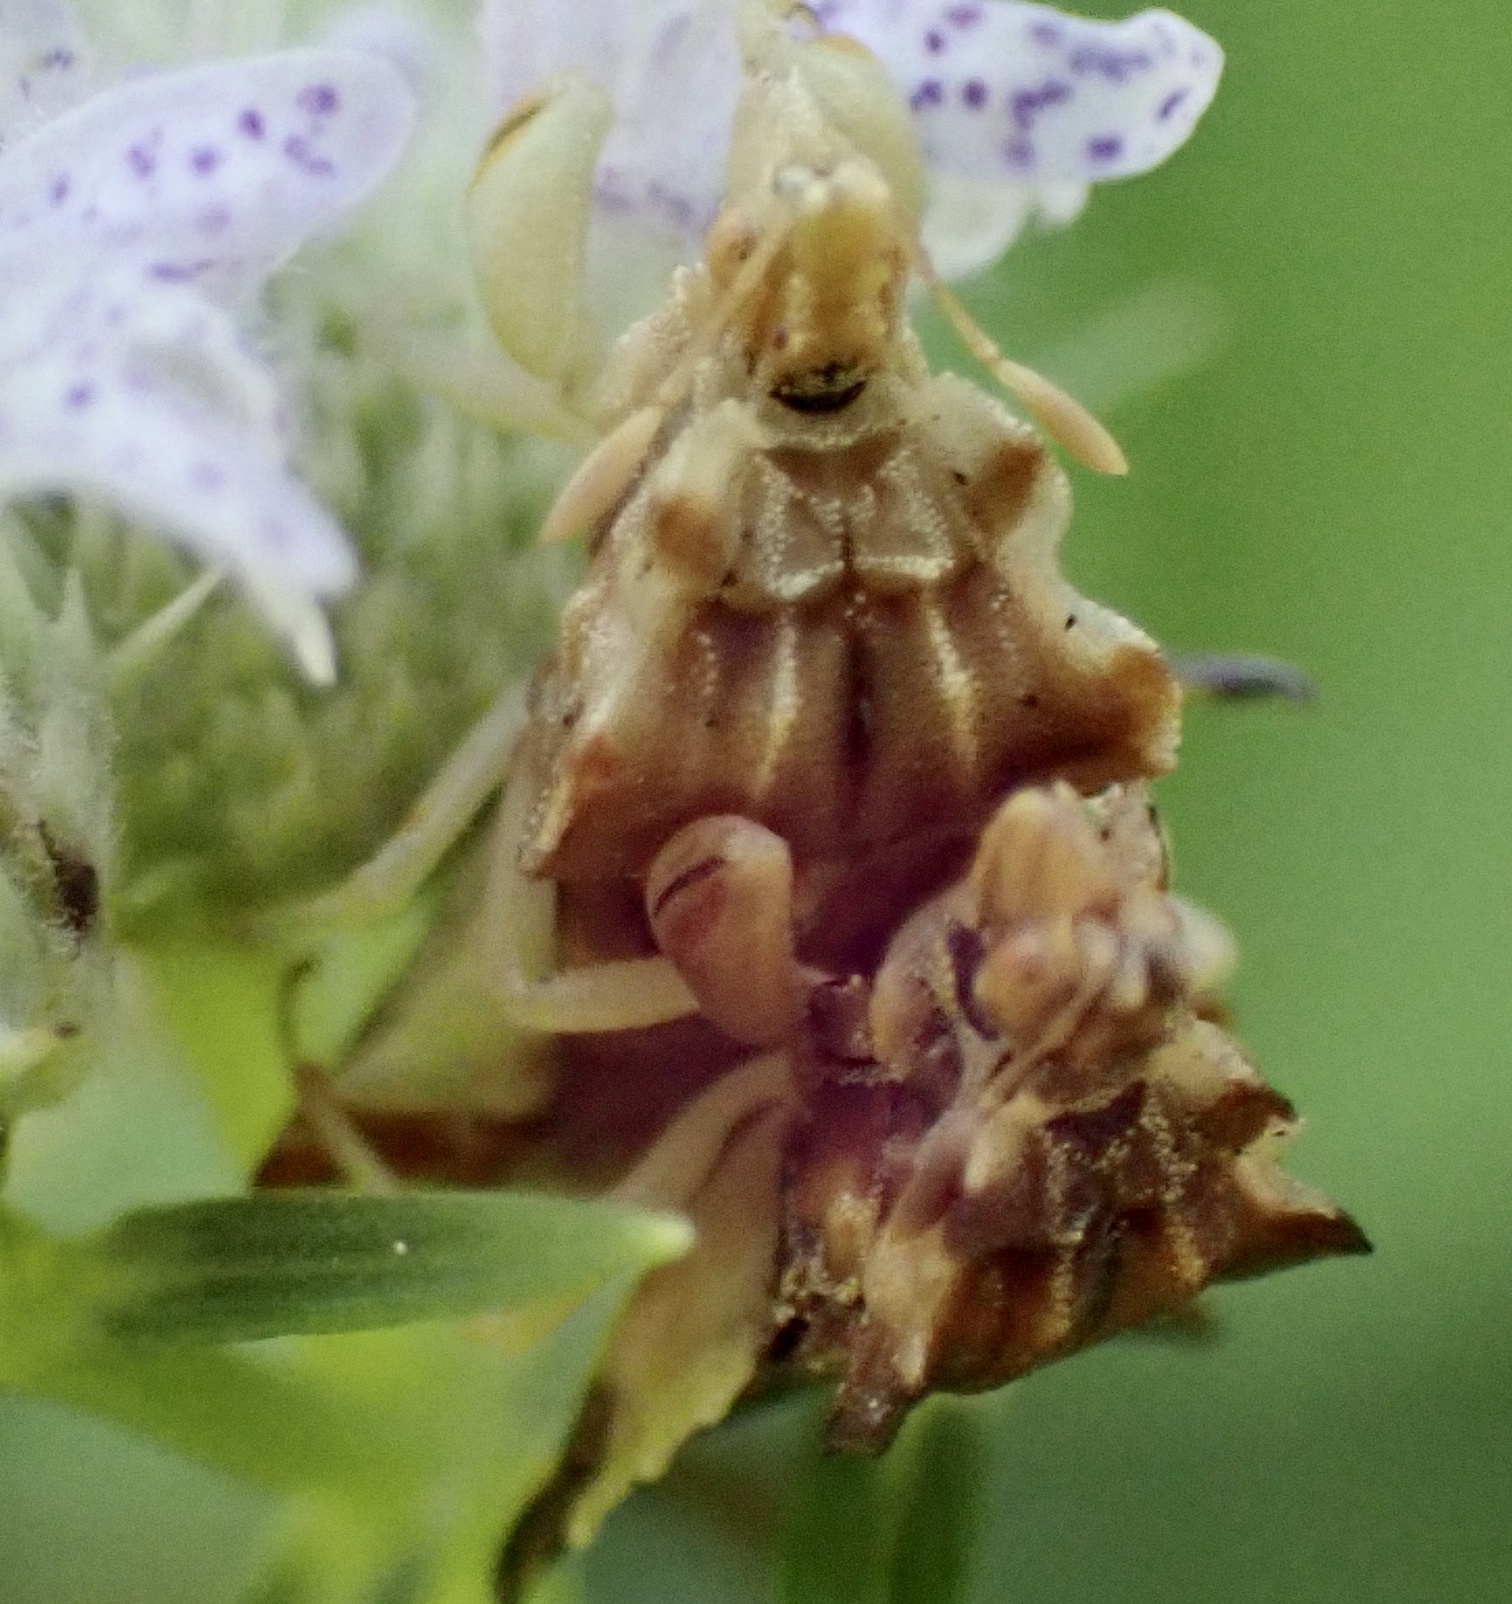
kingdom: Animalia
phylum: Arthropoda
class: Insecta
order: Hemiptera
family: Reduviidae
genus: Phymata
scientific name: Phymata fasciata
